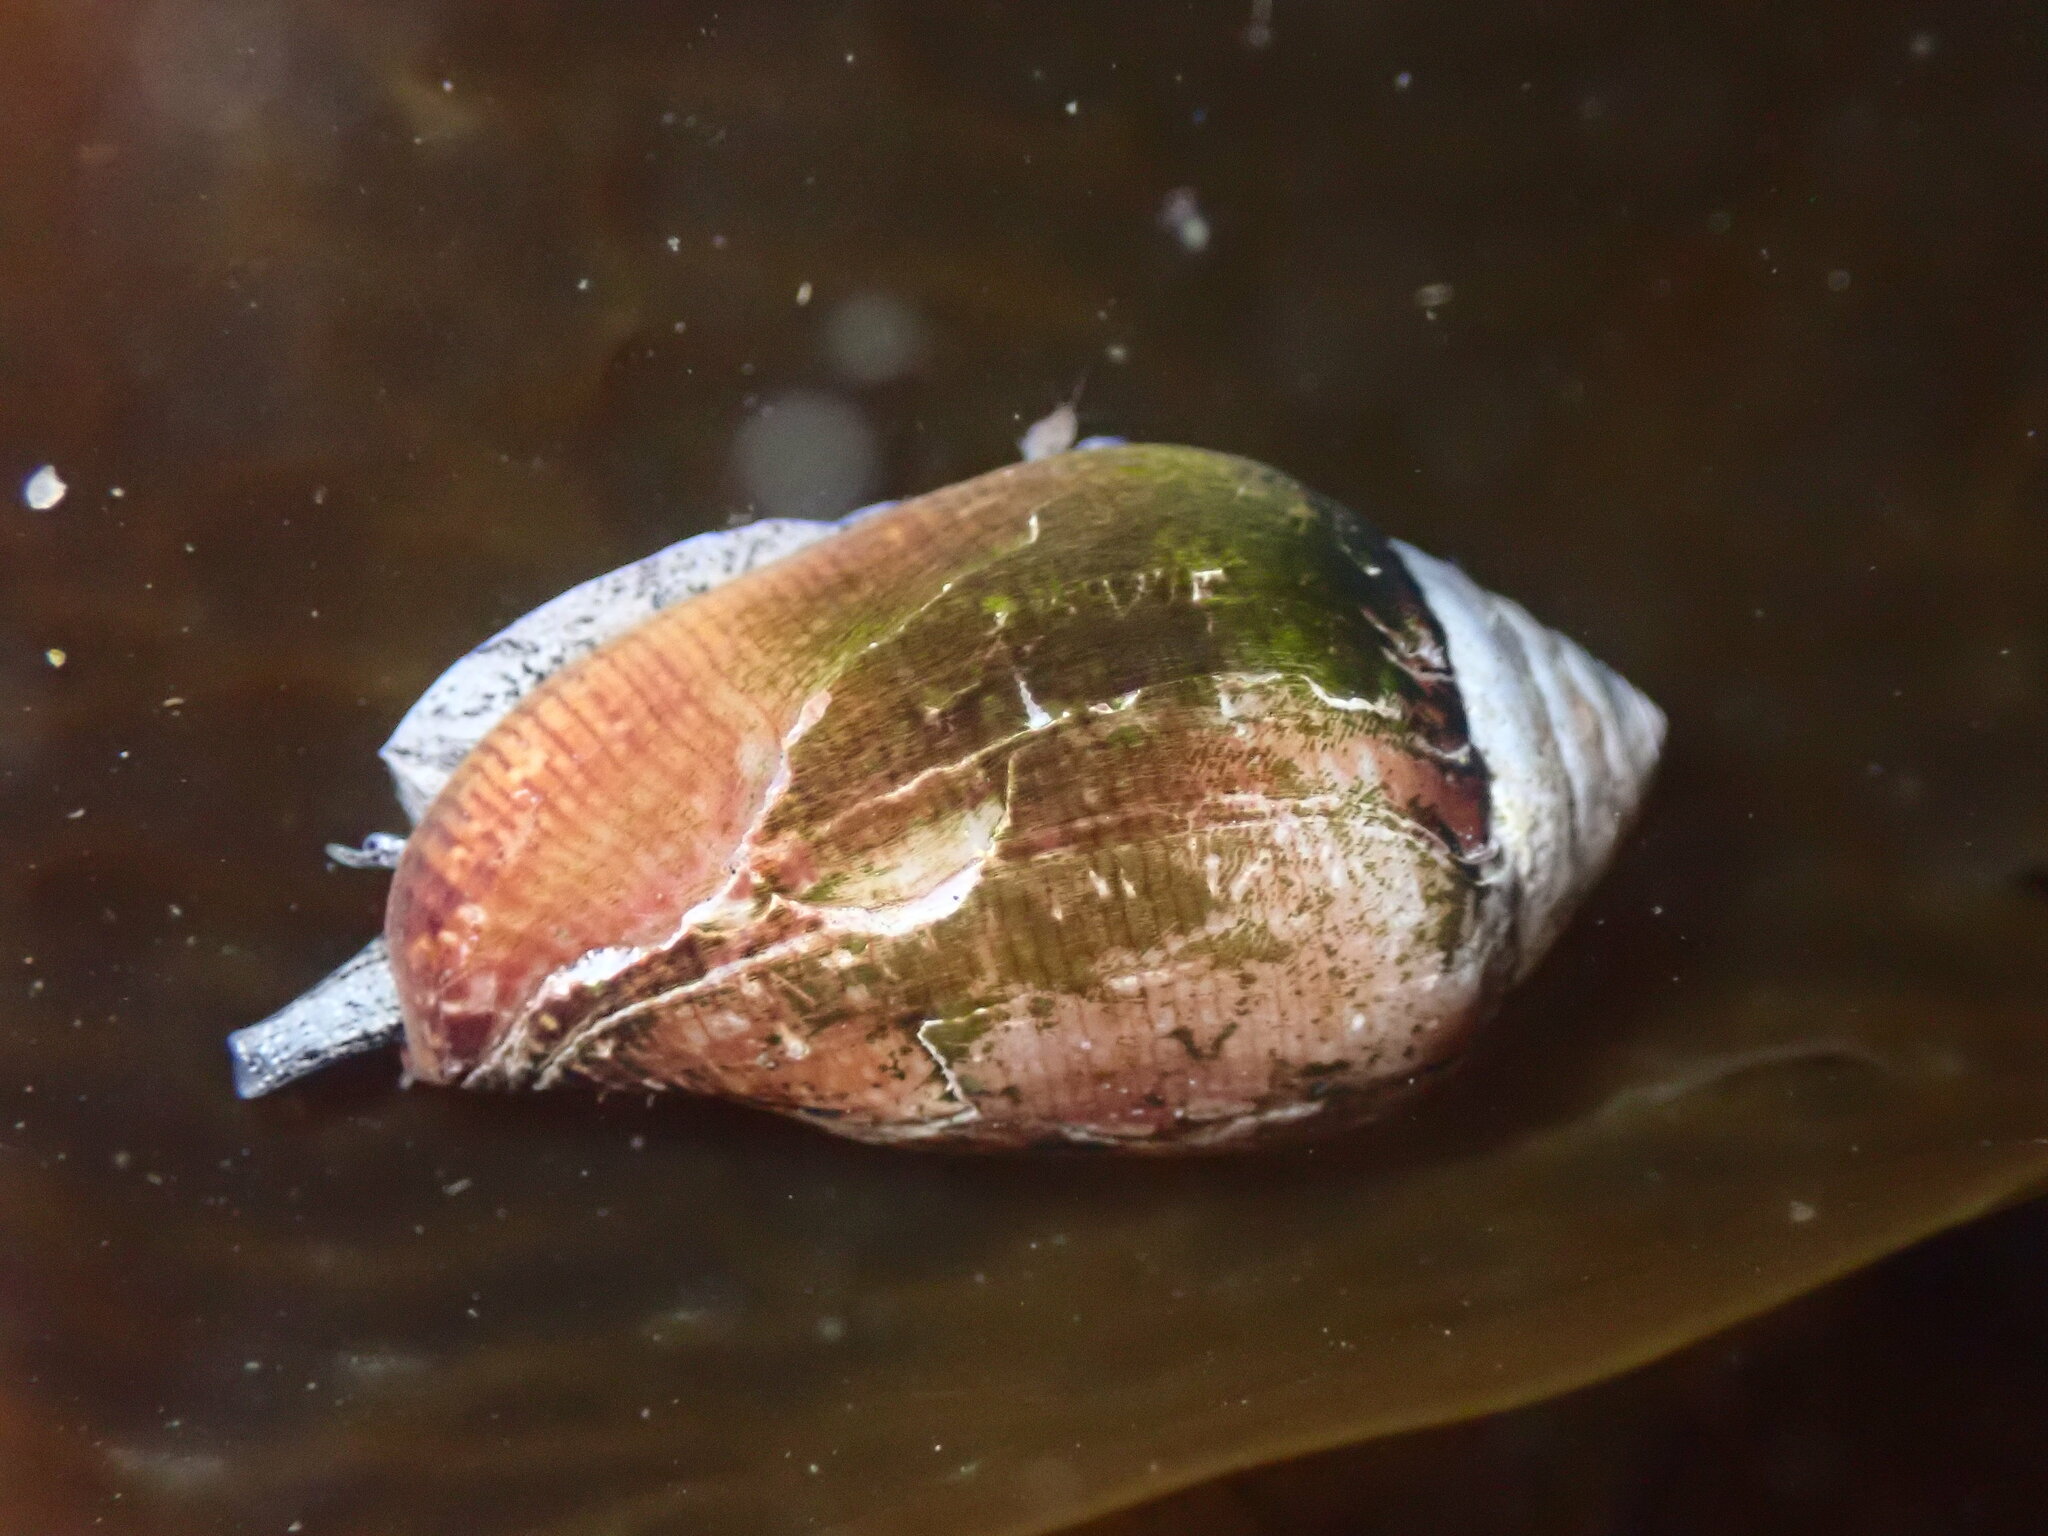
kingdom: Animalia
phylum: Mollusca
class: Gastropoda
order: Neogastropoda
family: Conidae
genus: Californiconus
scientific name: Californiconus californicus
